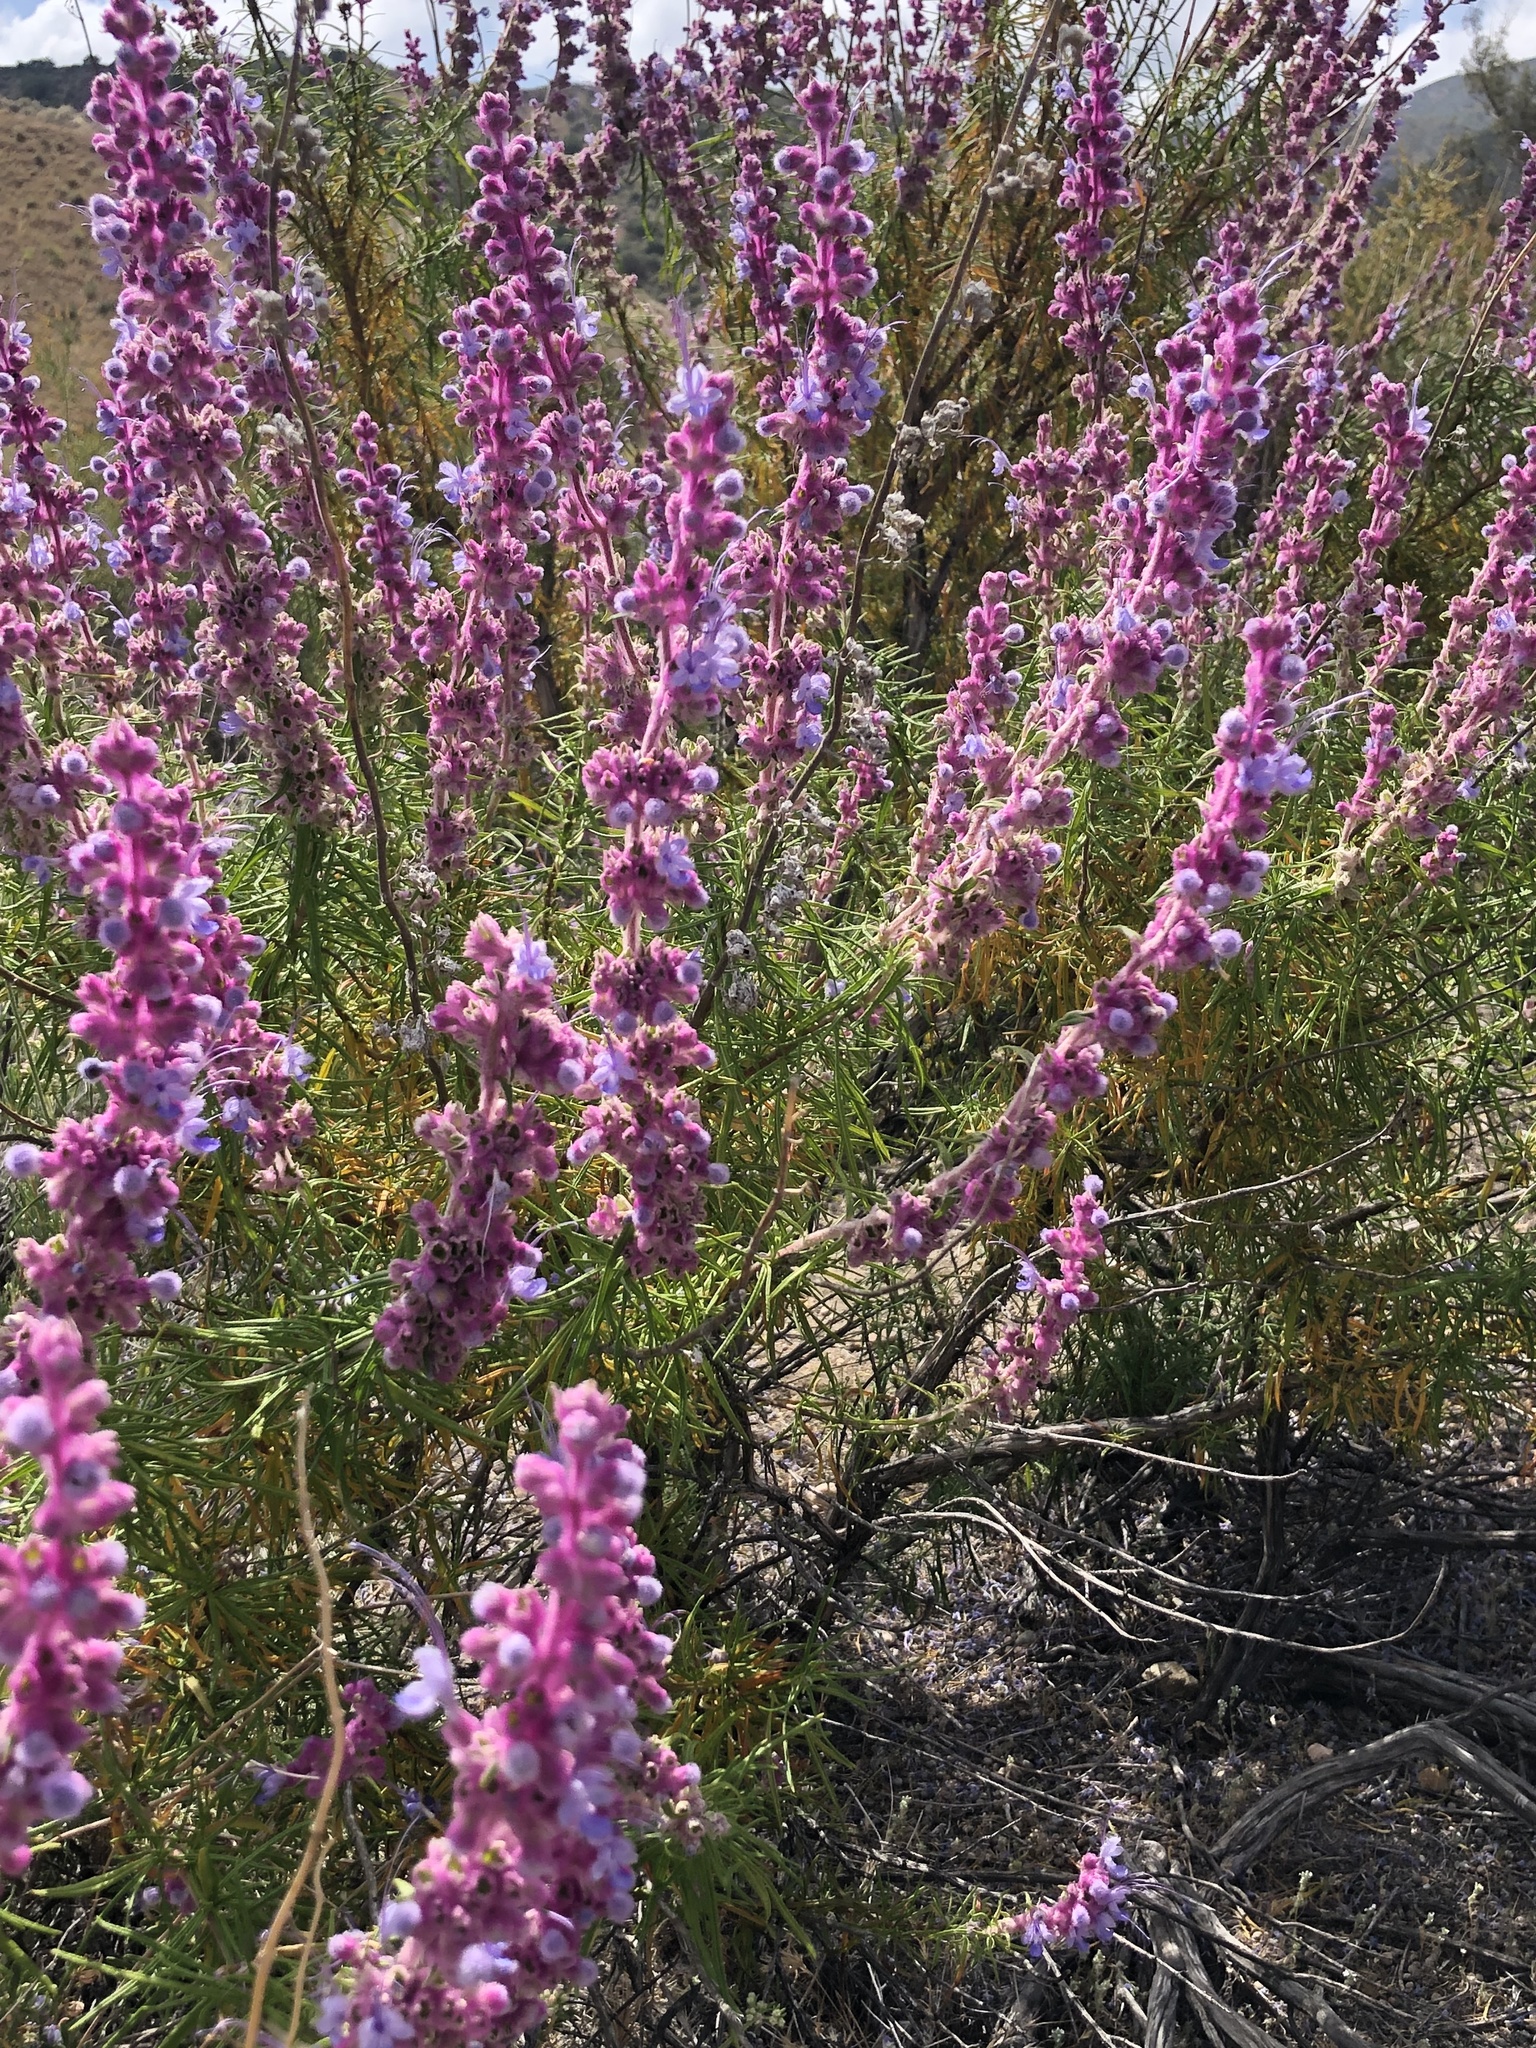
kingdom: Plantae
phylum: Tracheophyta
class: Magnoliopsida
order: Lamiales
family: Lamiaceae
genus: Trichostema
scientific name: Trichostema lanatum
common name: Woolly bluecurls
